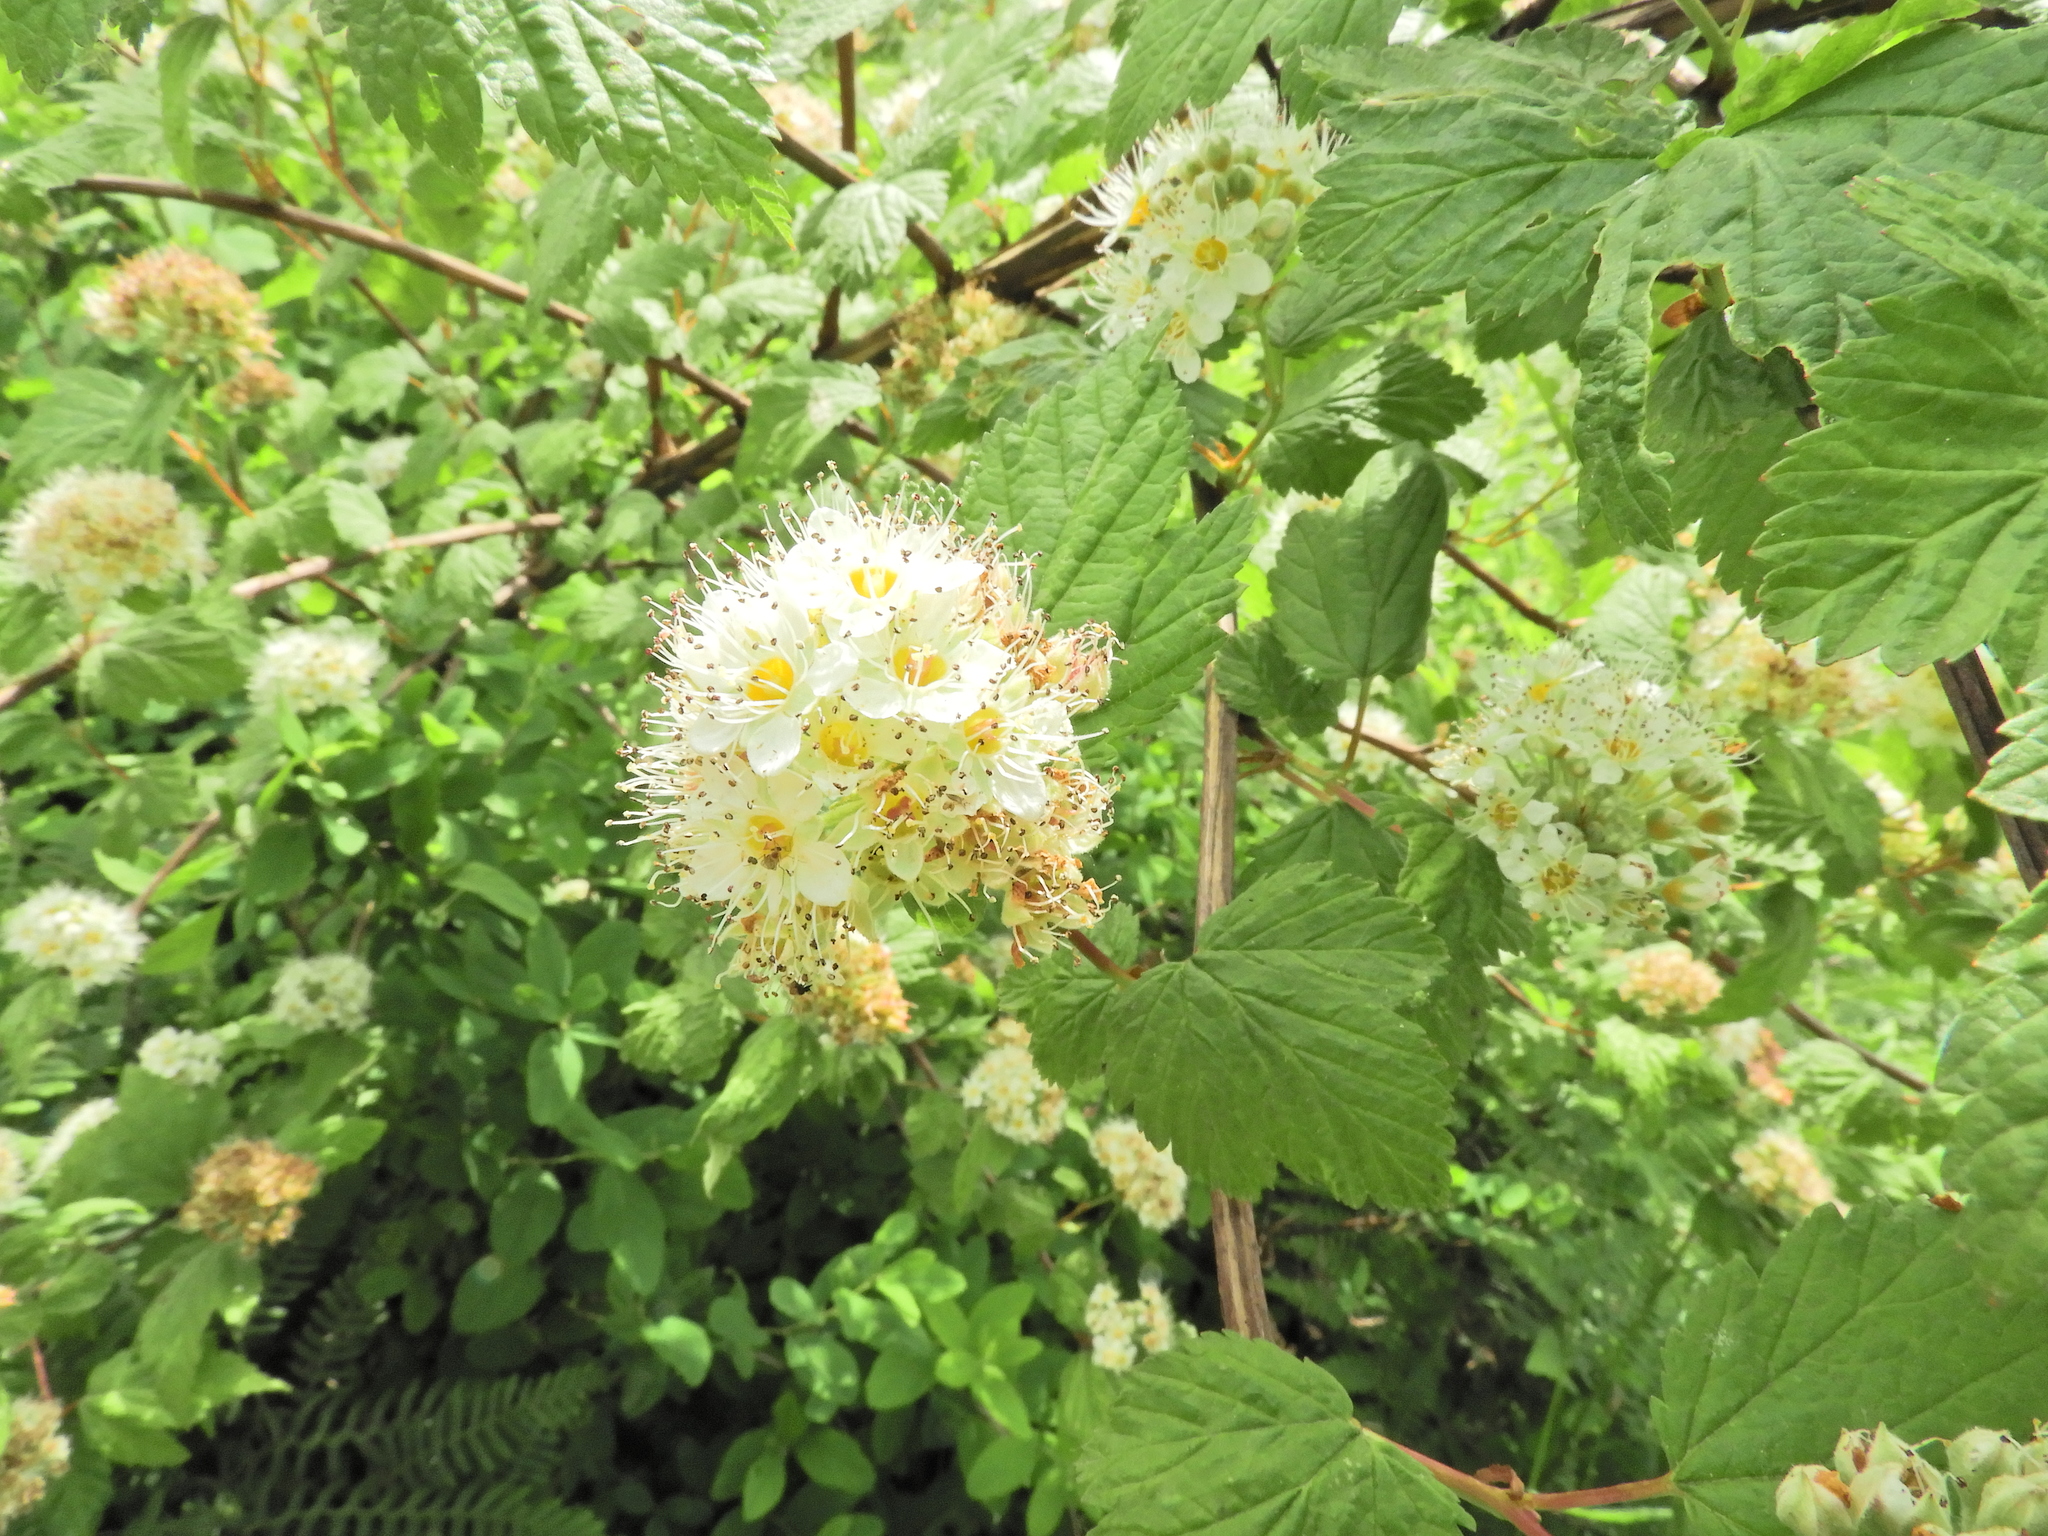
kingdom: Plantae
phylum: Tracheophyta
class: Magnoliopsida
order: Rosales
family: Rosaceae
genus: Physocarpus
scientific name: Physocarpus capitatus
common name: Pacific ninebark
